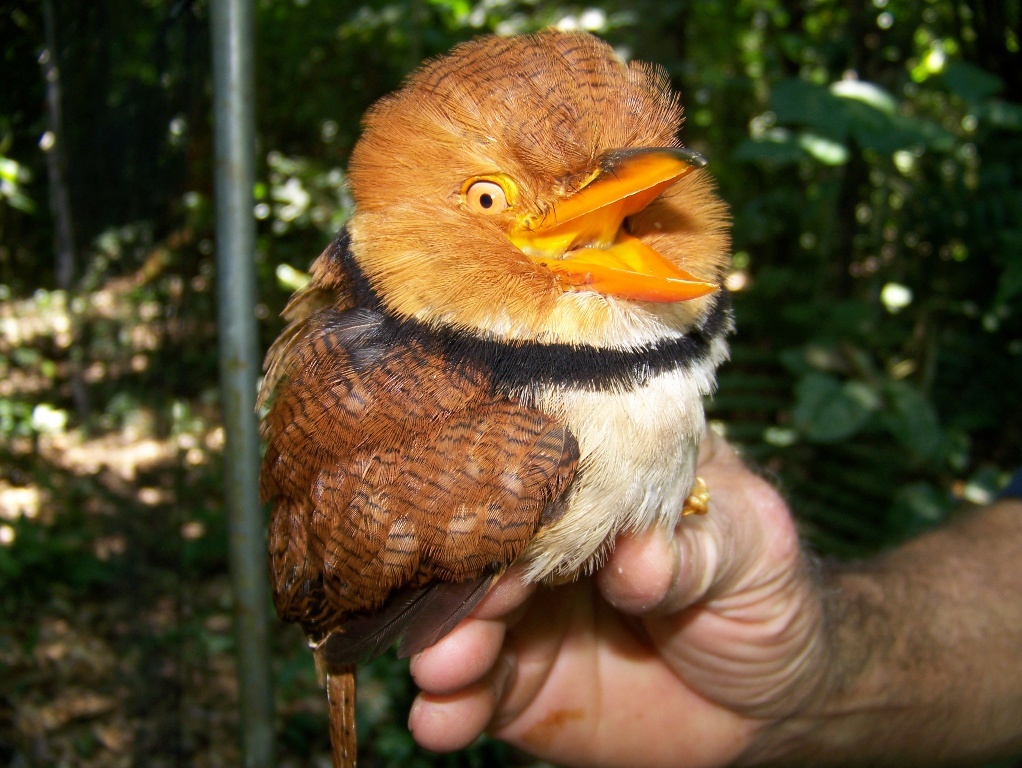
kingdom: Animalia
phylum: Chordata
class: Aves
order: Piciformes
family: Bucconidae
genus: Bucco
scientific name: Bucco capensis
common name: Collared puffbird
